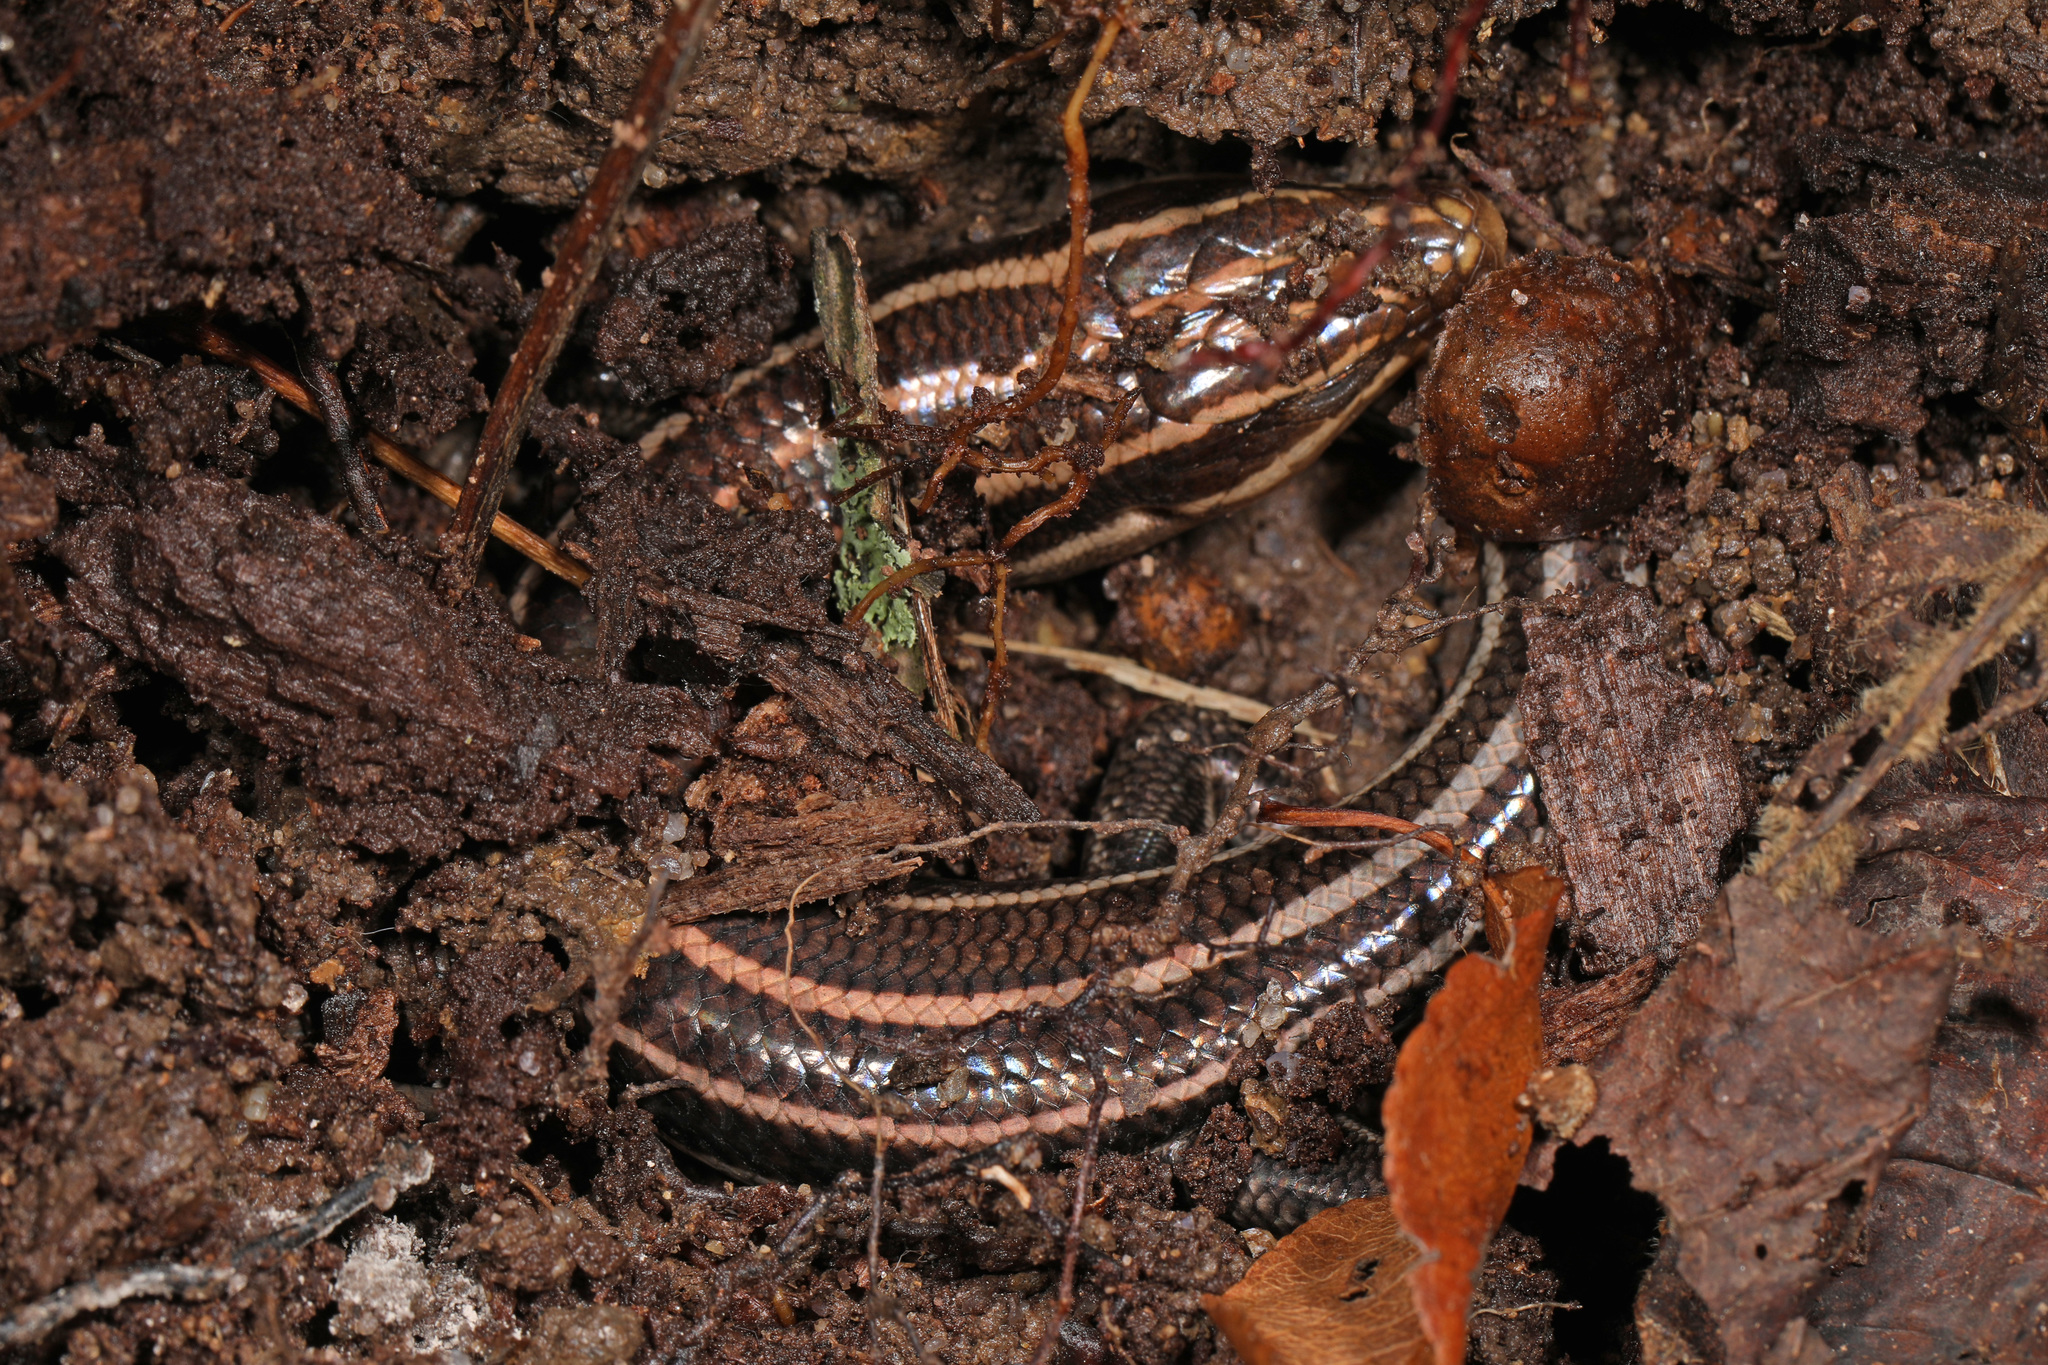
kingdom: Animalia
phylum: Chordata
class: Squamata
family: Scincidae
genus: Plestiodon
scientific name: Plestiodon fasciatus
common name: Five-lined skink
